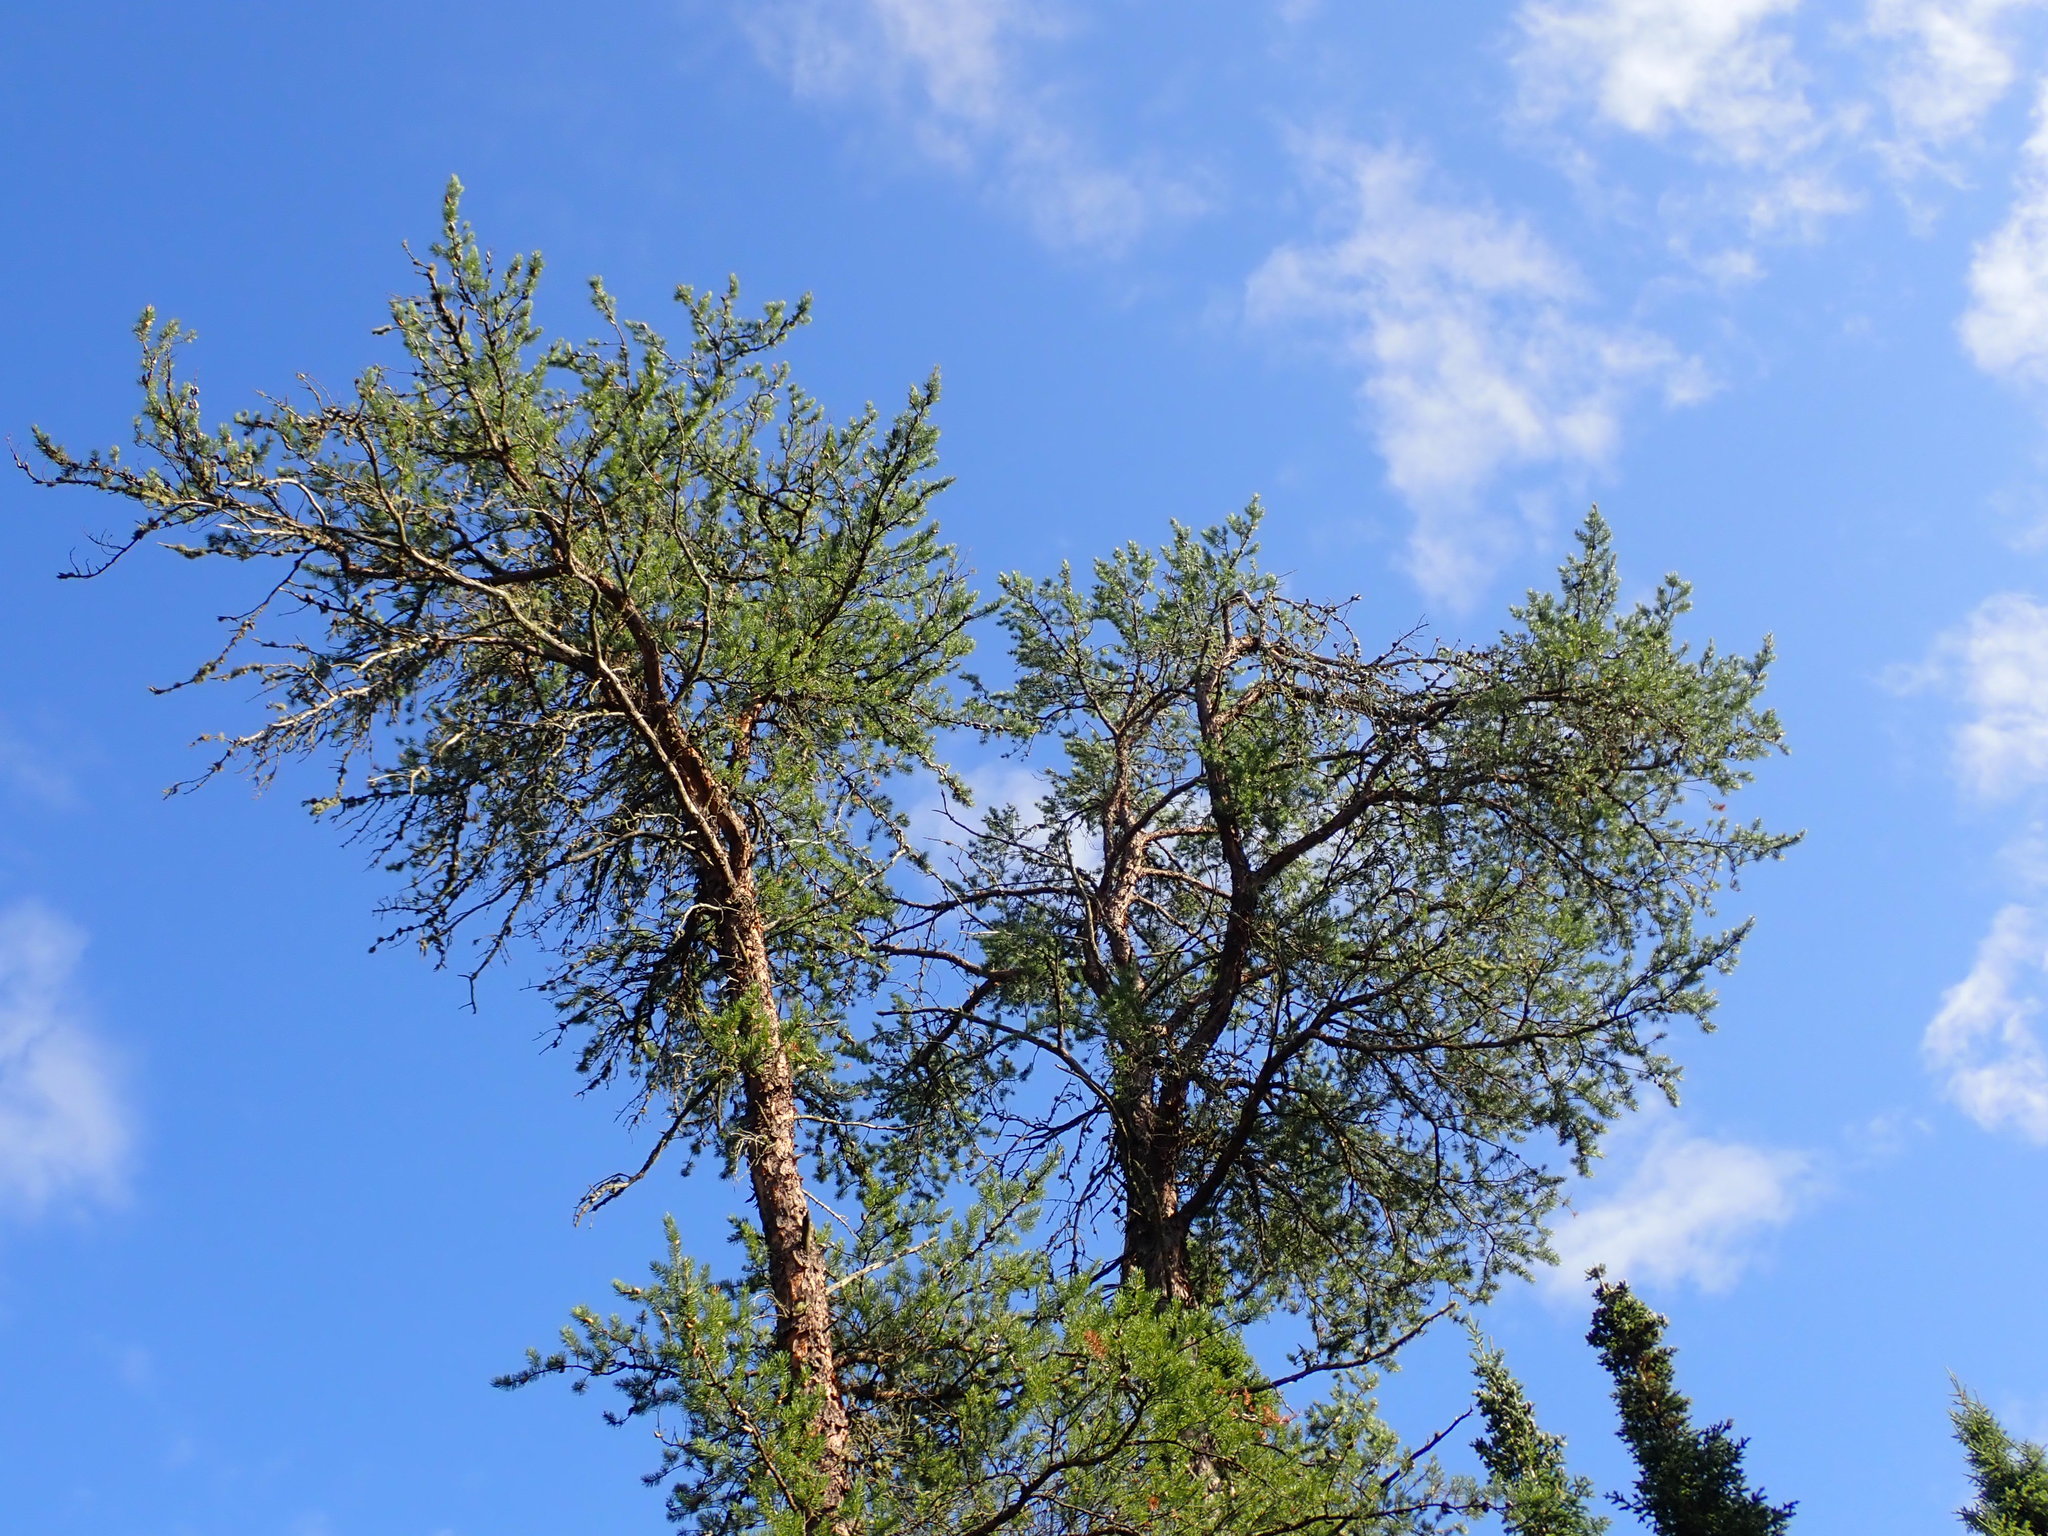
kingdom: Plantae
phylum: Tracheophyta
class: Pinopsida
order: Pinales
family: Pinaceae
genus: Pinus
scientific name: Pinus banksiana
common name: Jack pine
